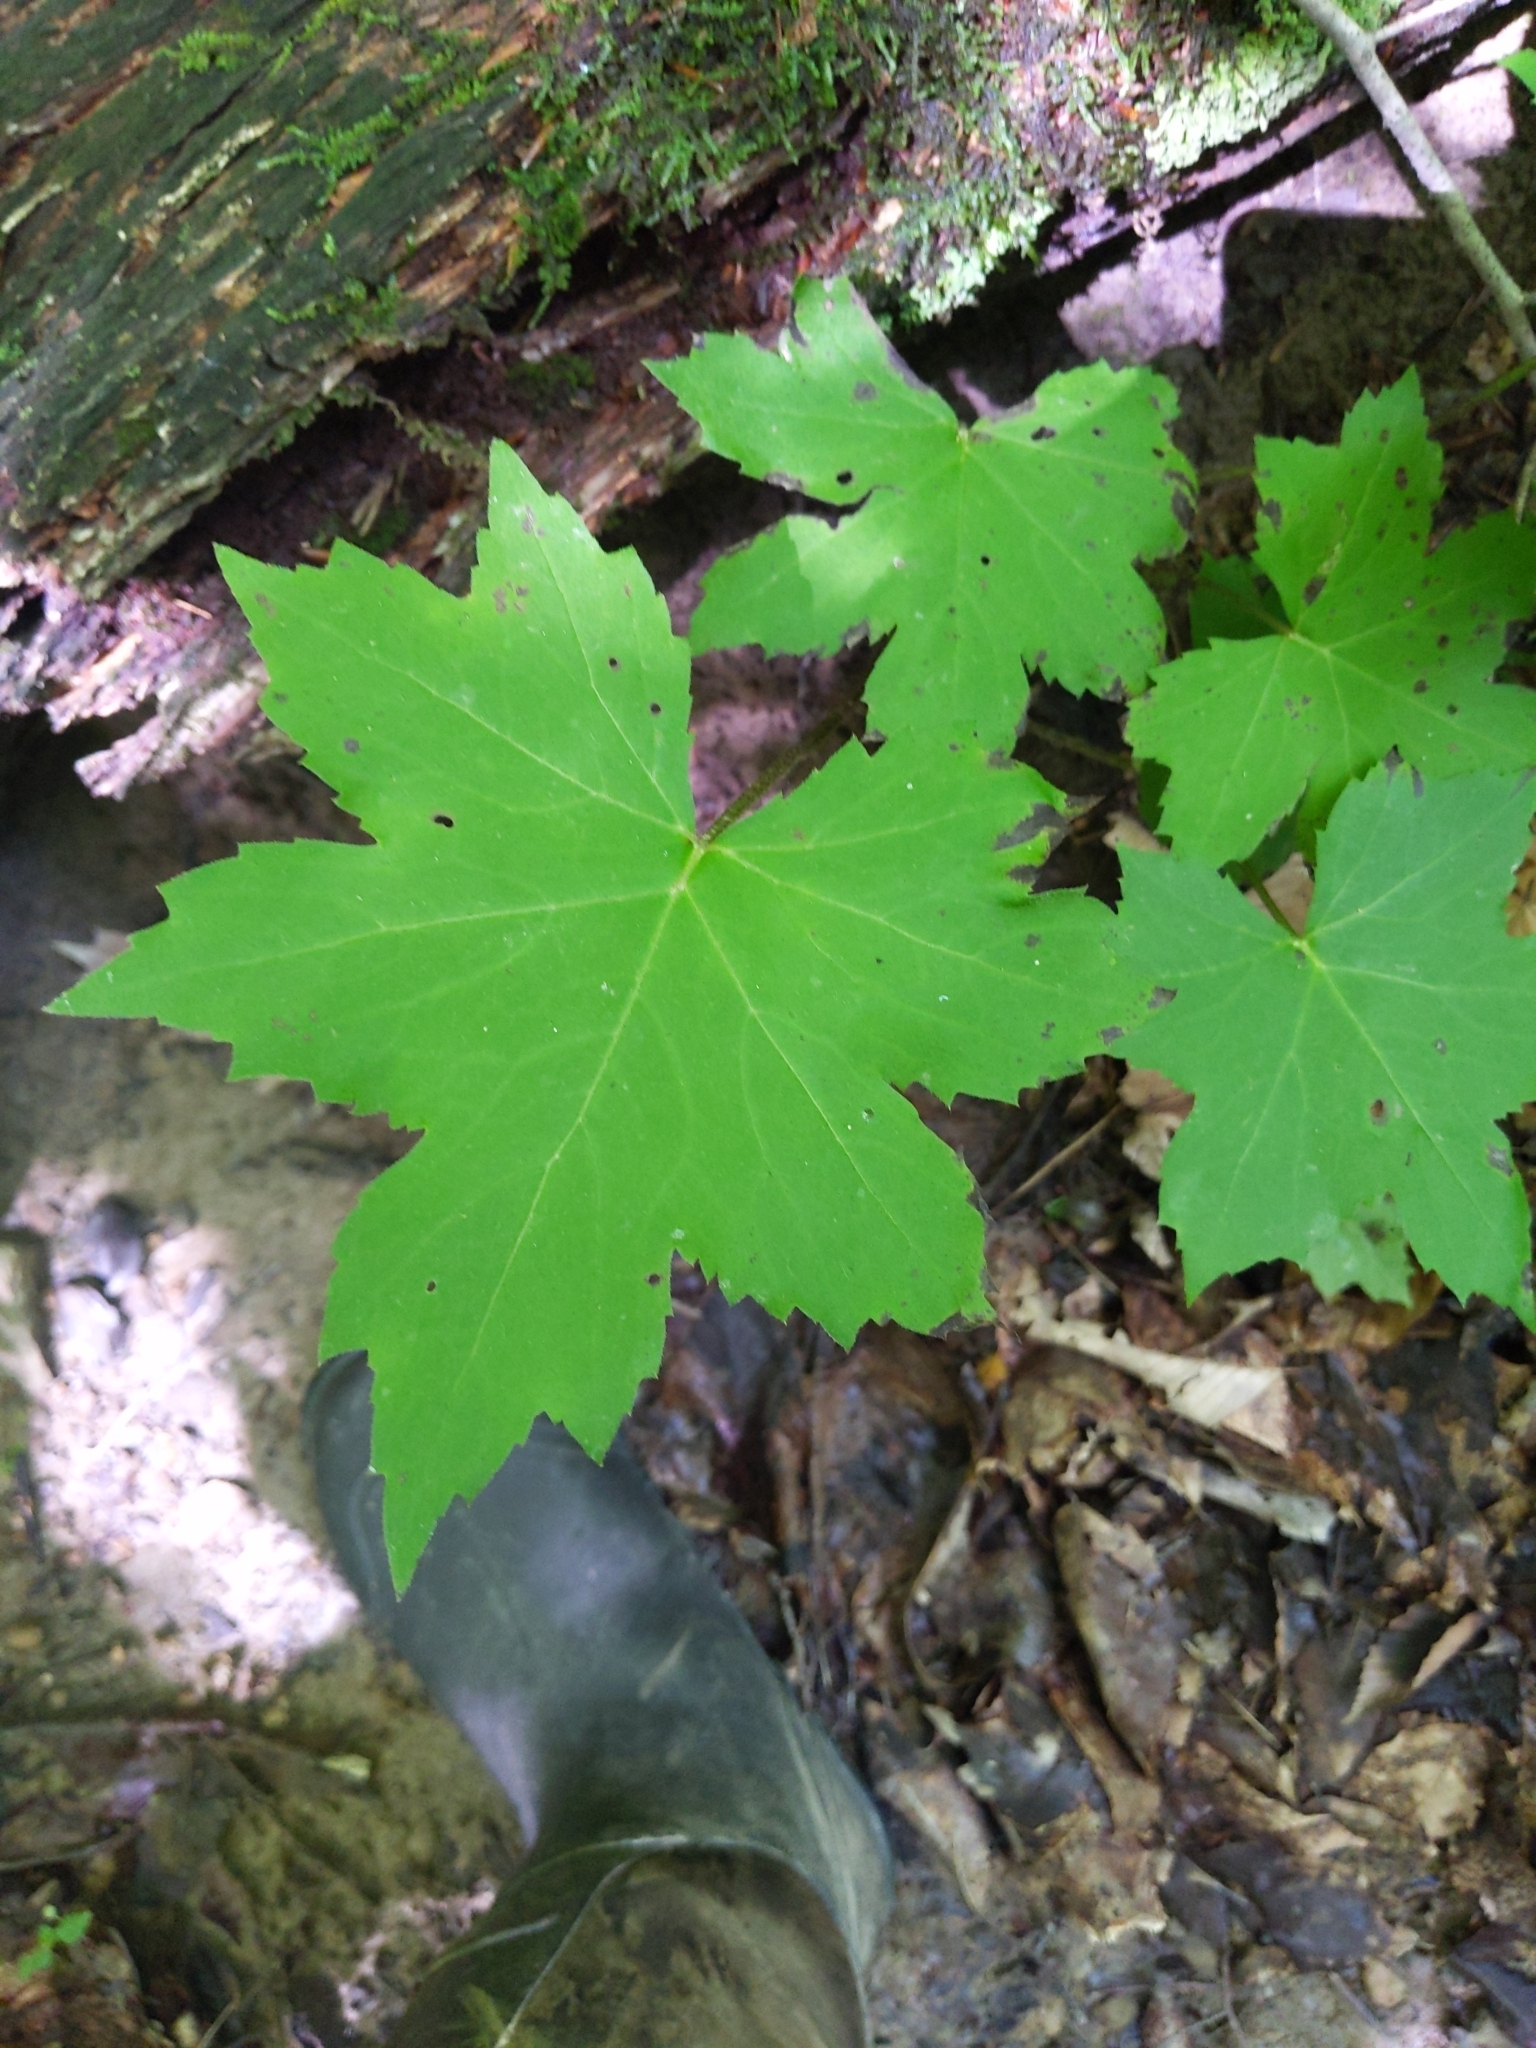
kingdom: Plantae
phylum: Tracheophyta
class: Magnoliopsida
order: Boraginales
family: Hydrophyllaceae
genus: Hydrophyllum
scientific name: Hydrophyllum canadense
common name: Canada waterleaf
